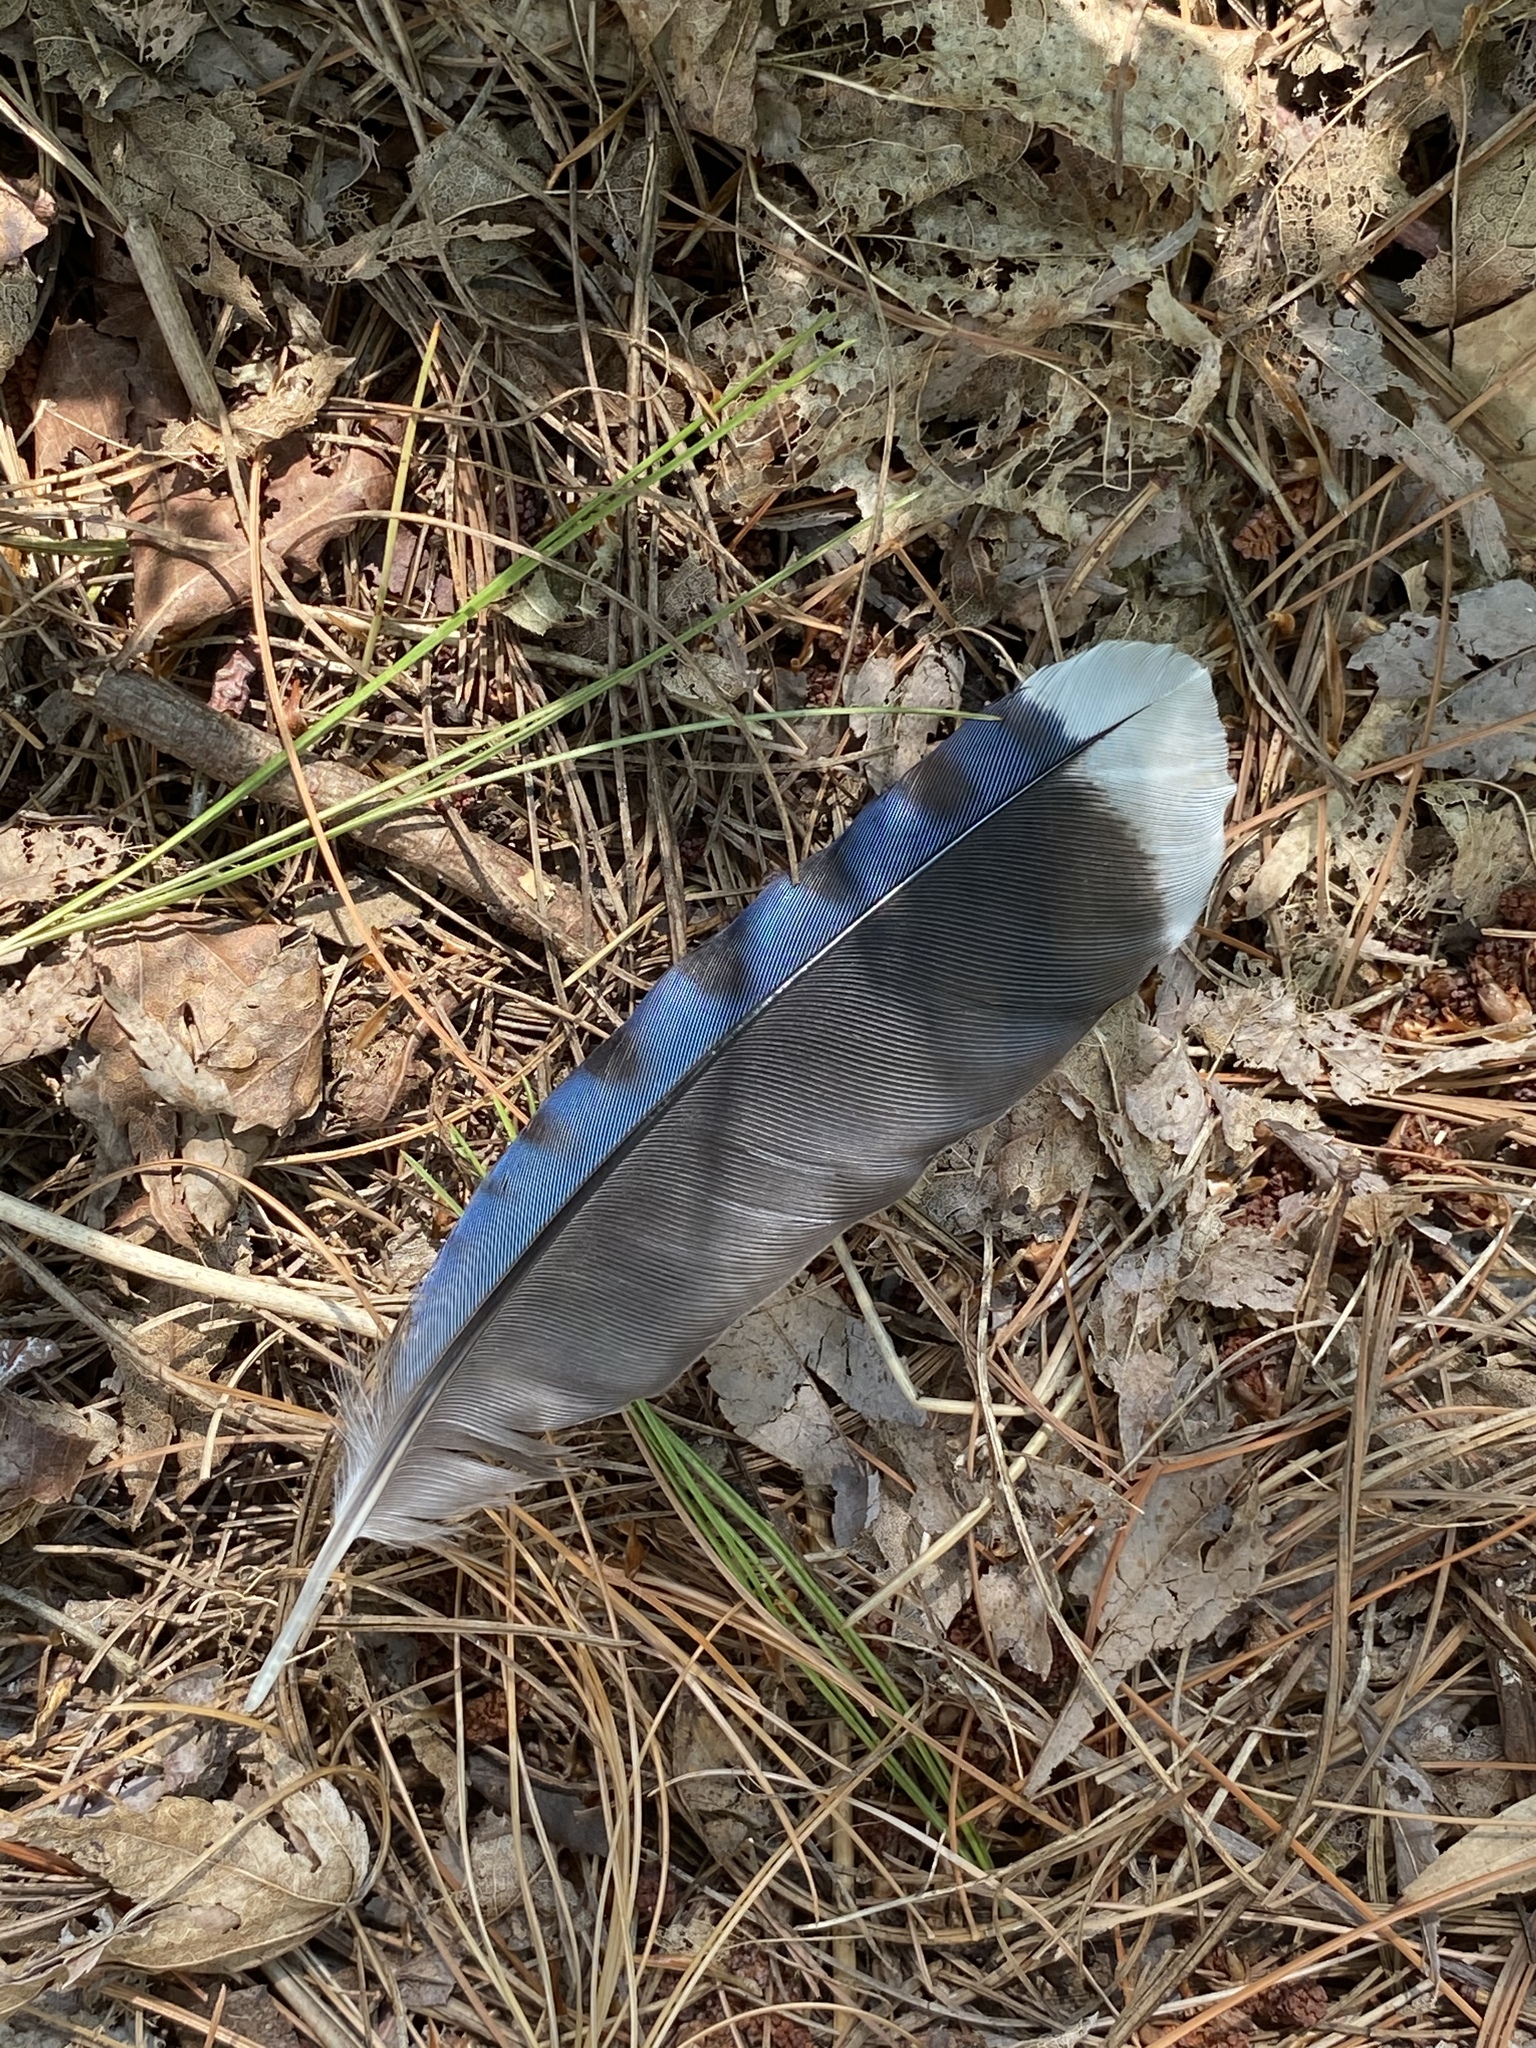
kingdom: Animalia
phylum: Chordata
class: Aves
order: Passeriformes
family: Corvidae
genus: Cyanocitta
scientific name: Cyanocitta cristata
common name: Blue jay
